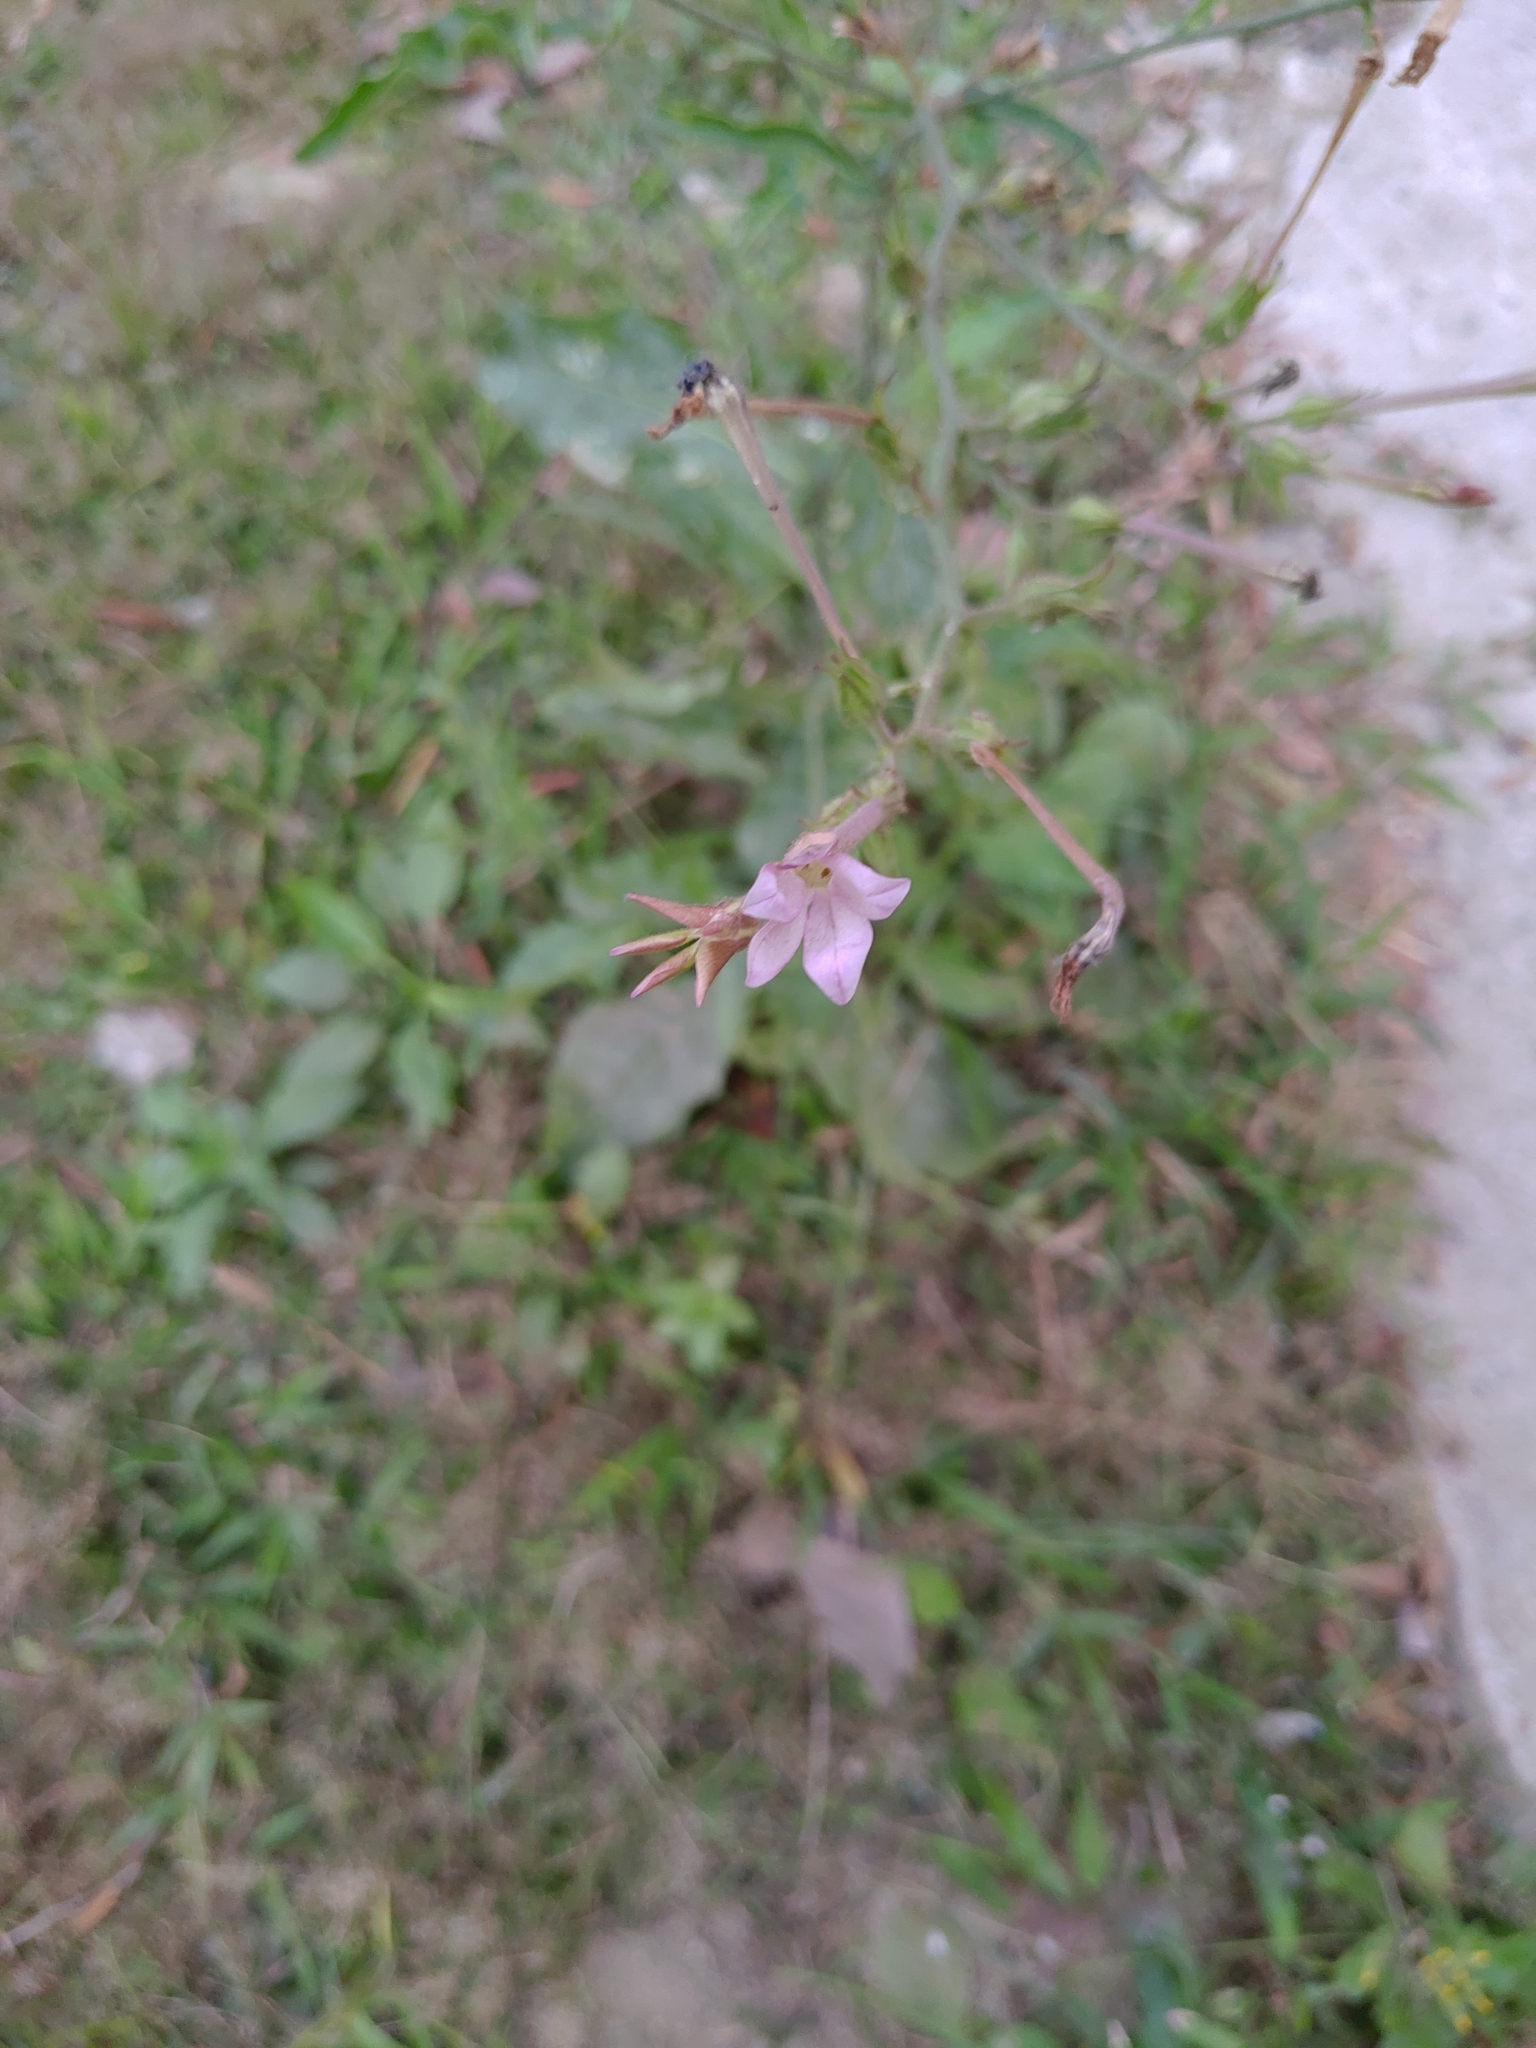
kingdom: Plantae
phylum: Tracheophyta
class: Magnoliopsida
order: Solanales
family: Solanaceae
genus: Nicotiana
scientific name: Nicotiana plumbaginifolia
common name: Tex-mex tobacco
